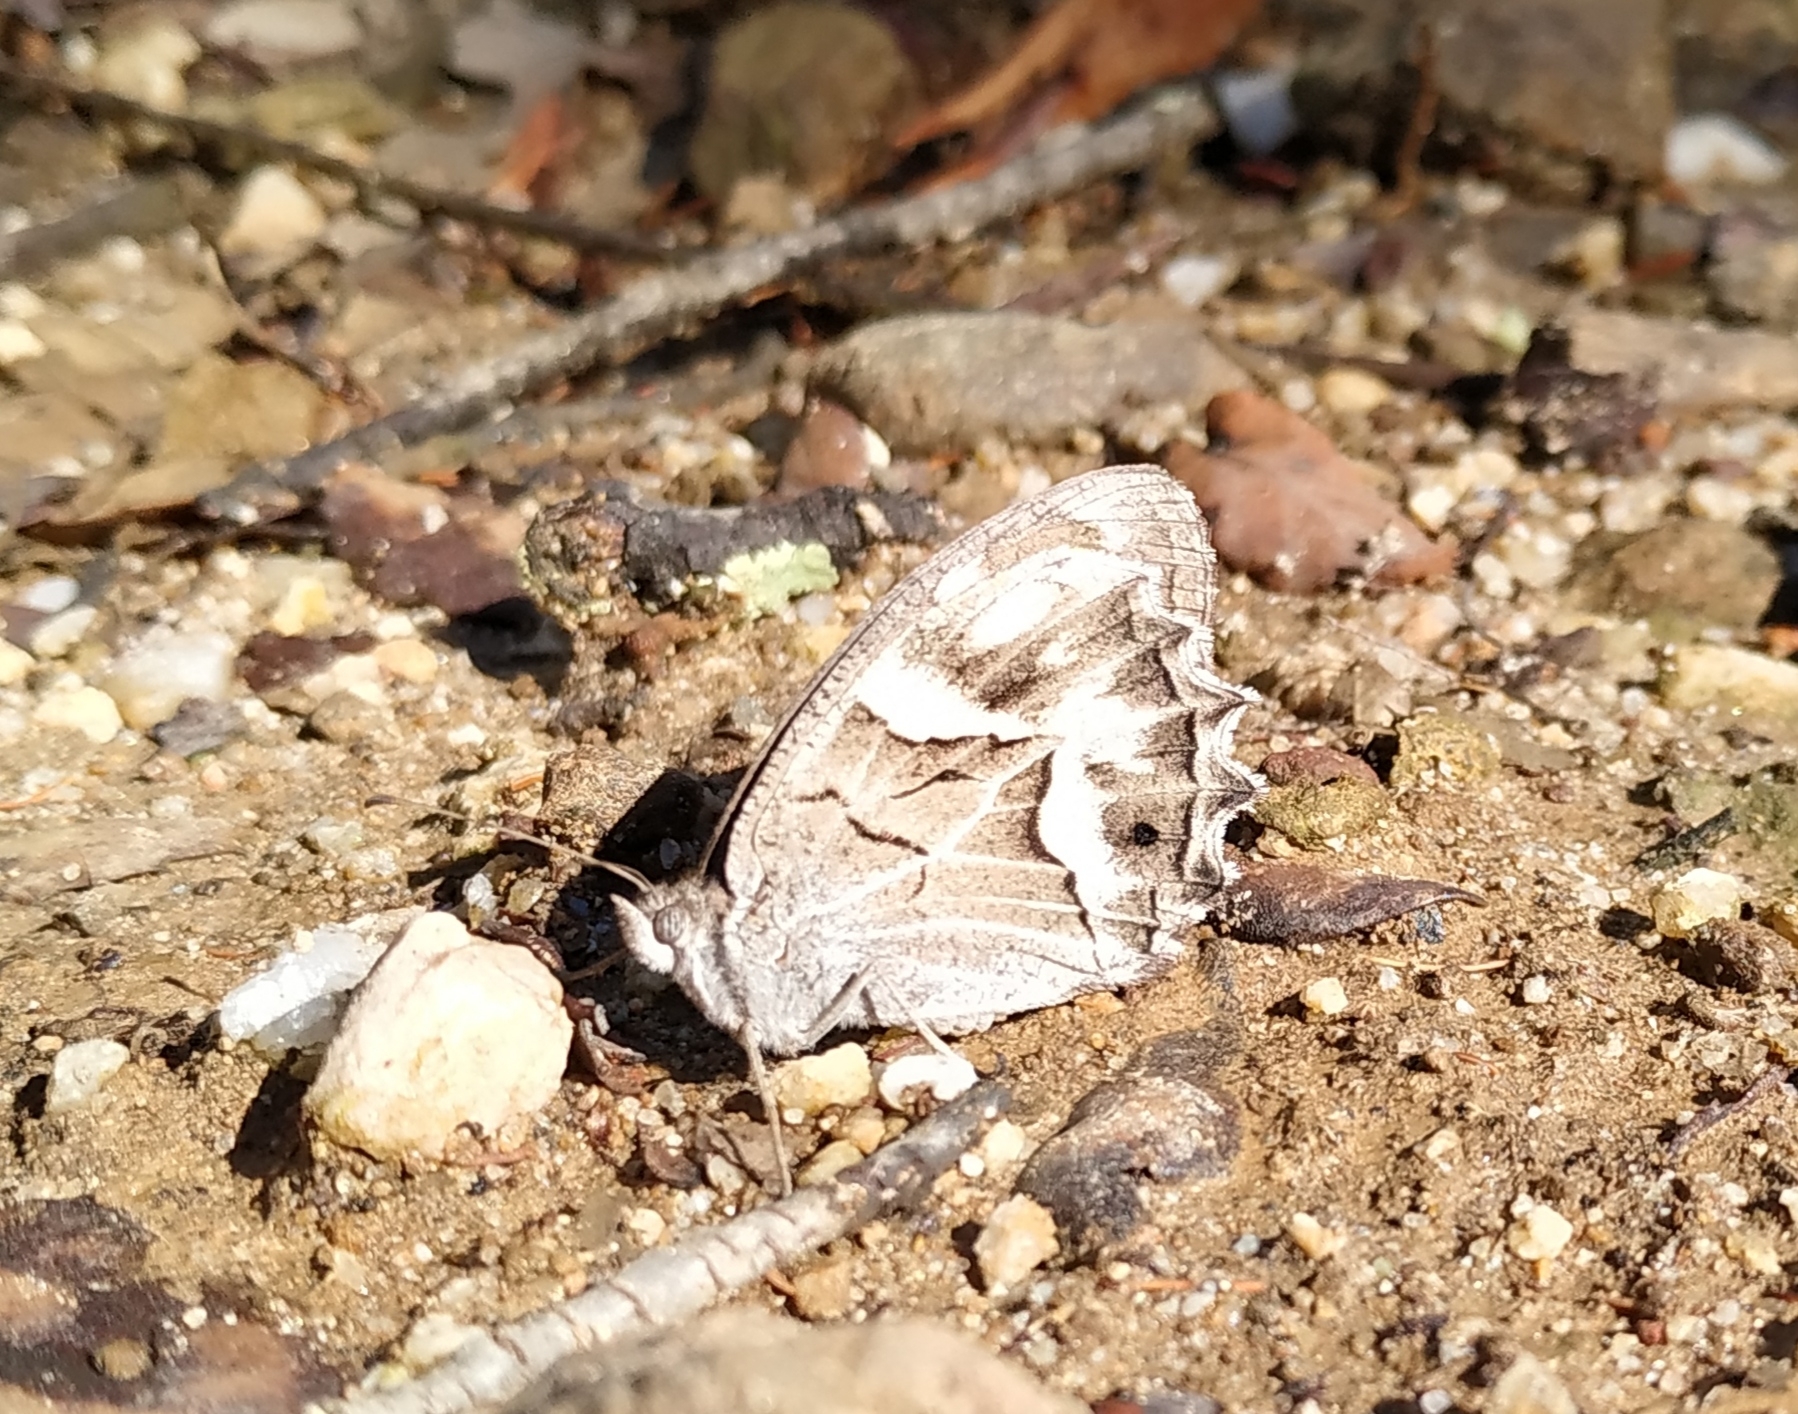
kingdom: Animalia
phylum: Arthropoda
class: Insecta
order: Lepidoptera
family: Nymphalidae
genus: Hipparchia
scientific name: Hipparchia fidia
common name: Striped grayling
